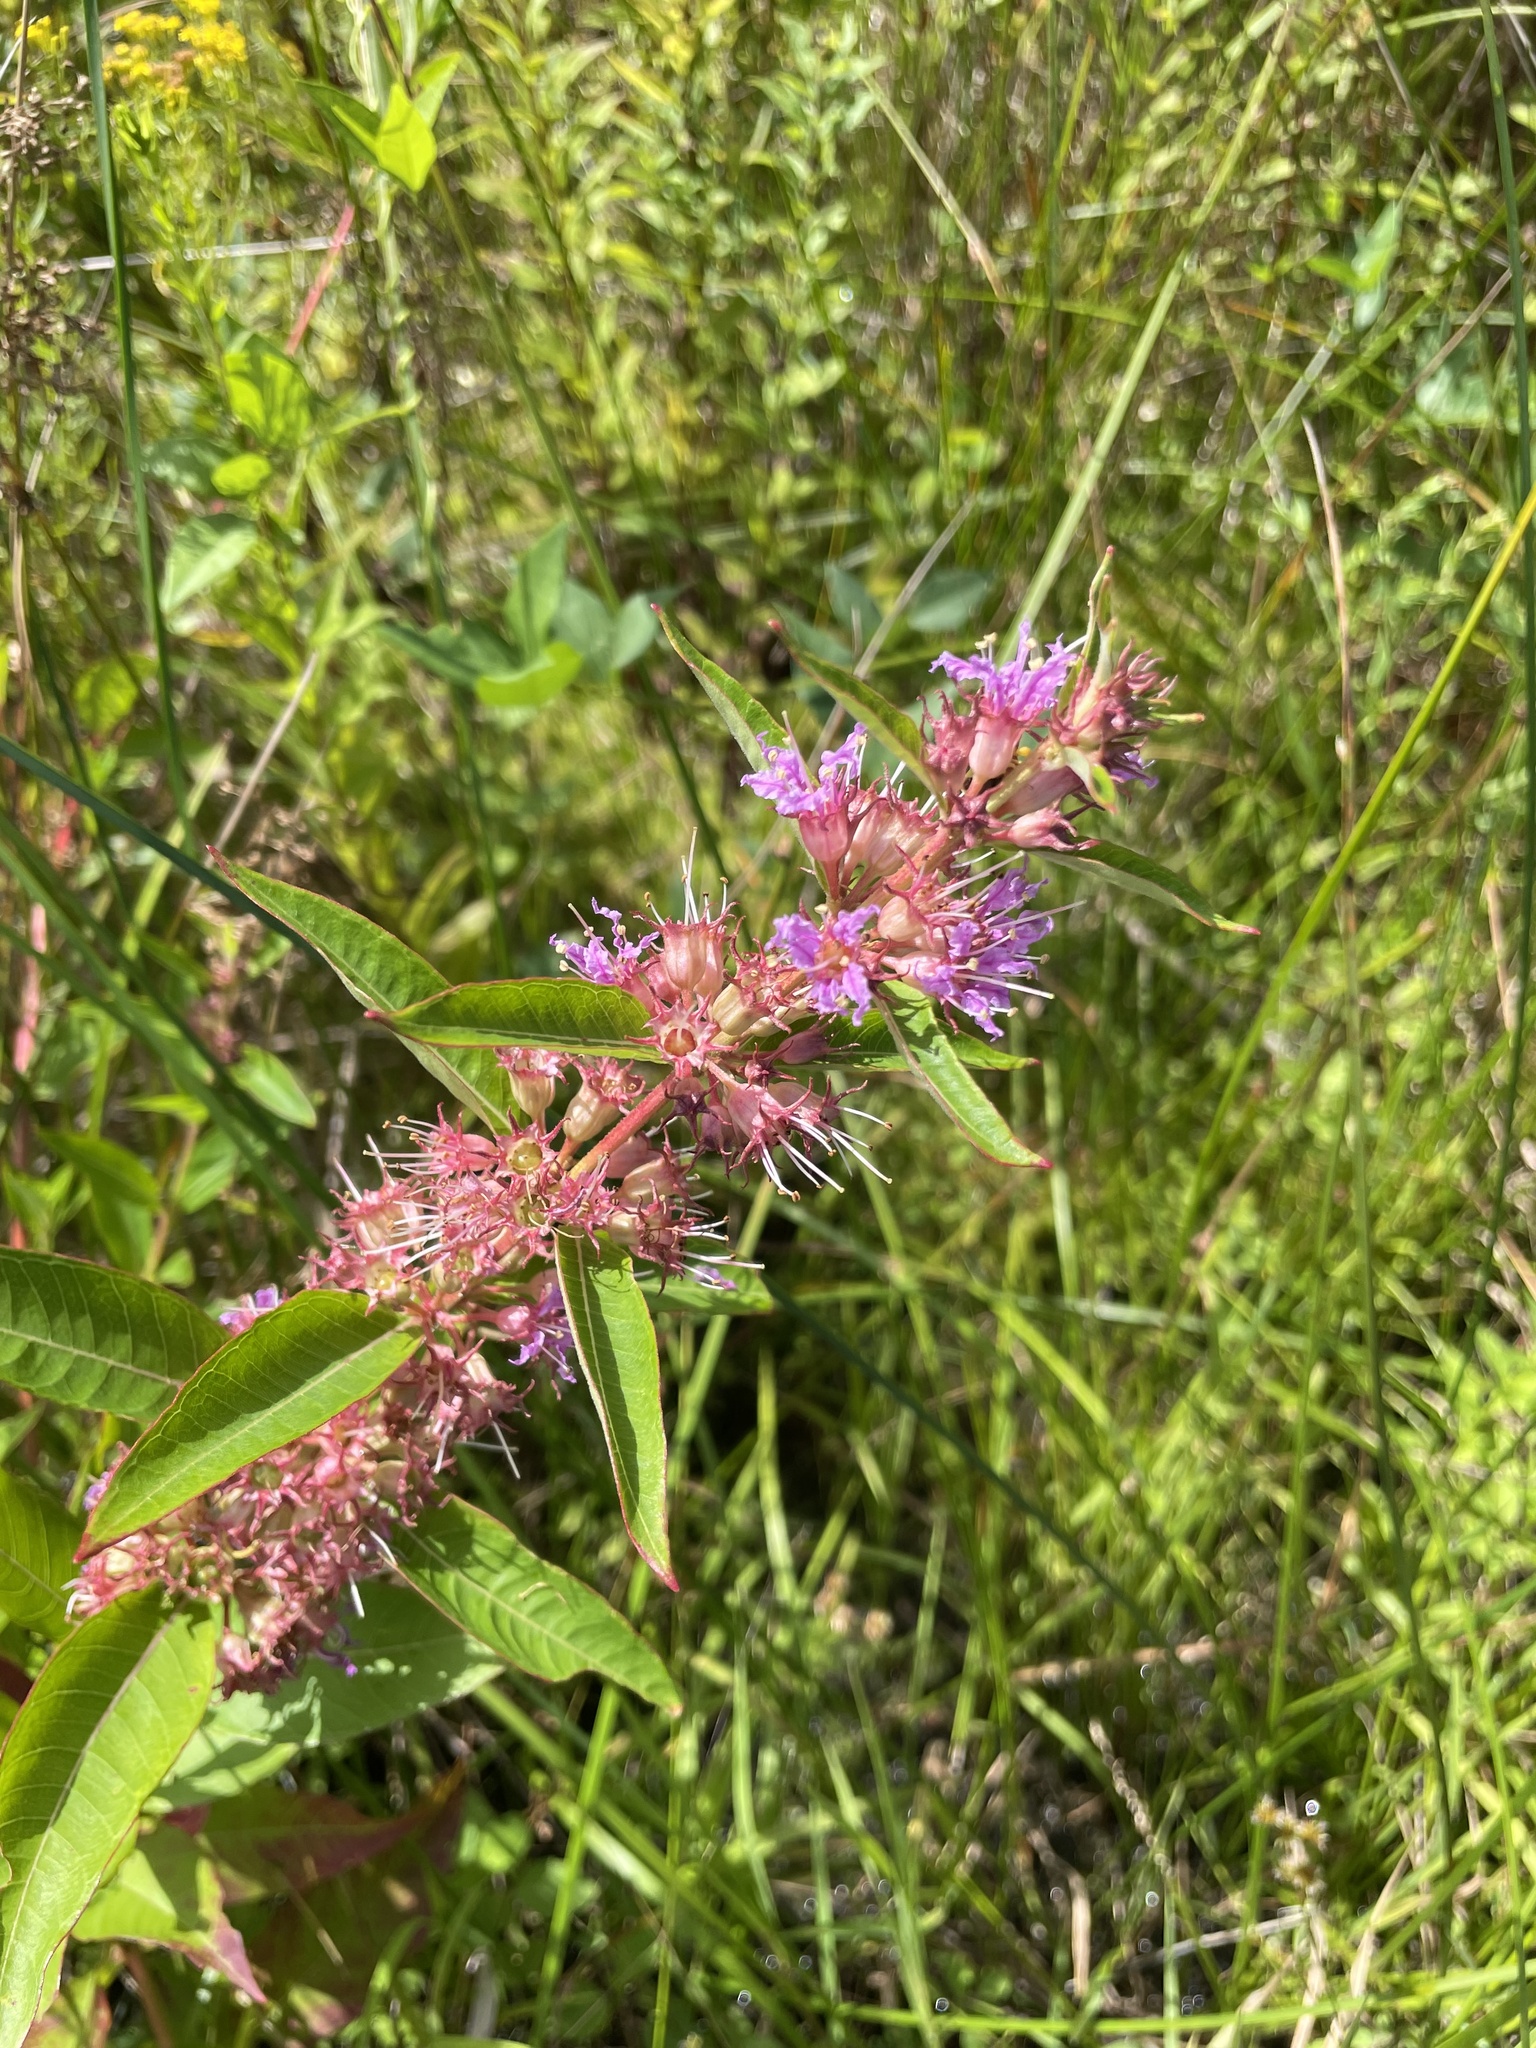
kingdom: Plantae
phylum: Tracheophyta
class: Magnoliopsida
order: Myrtales
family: Lythraceae
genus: Decodon
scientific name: Decodon verticillatus
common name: Hairy swamp loosestrife
